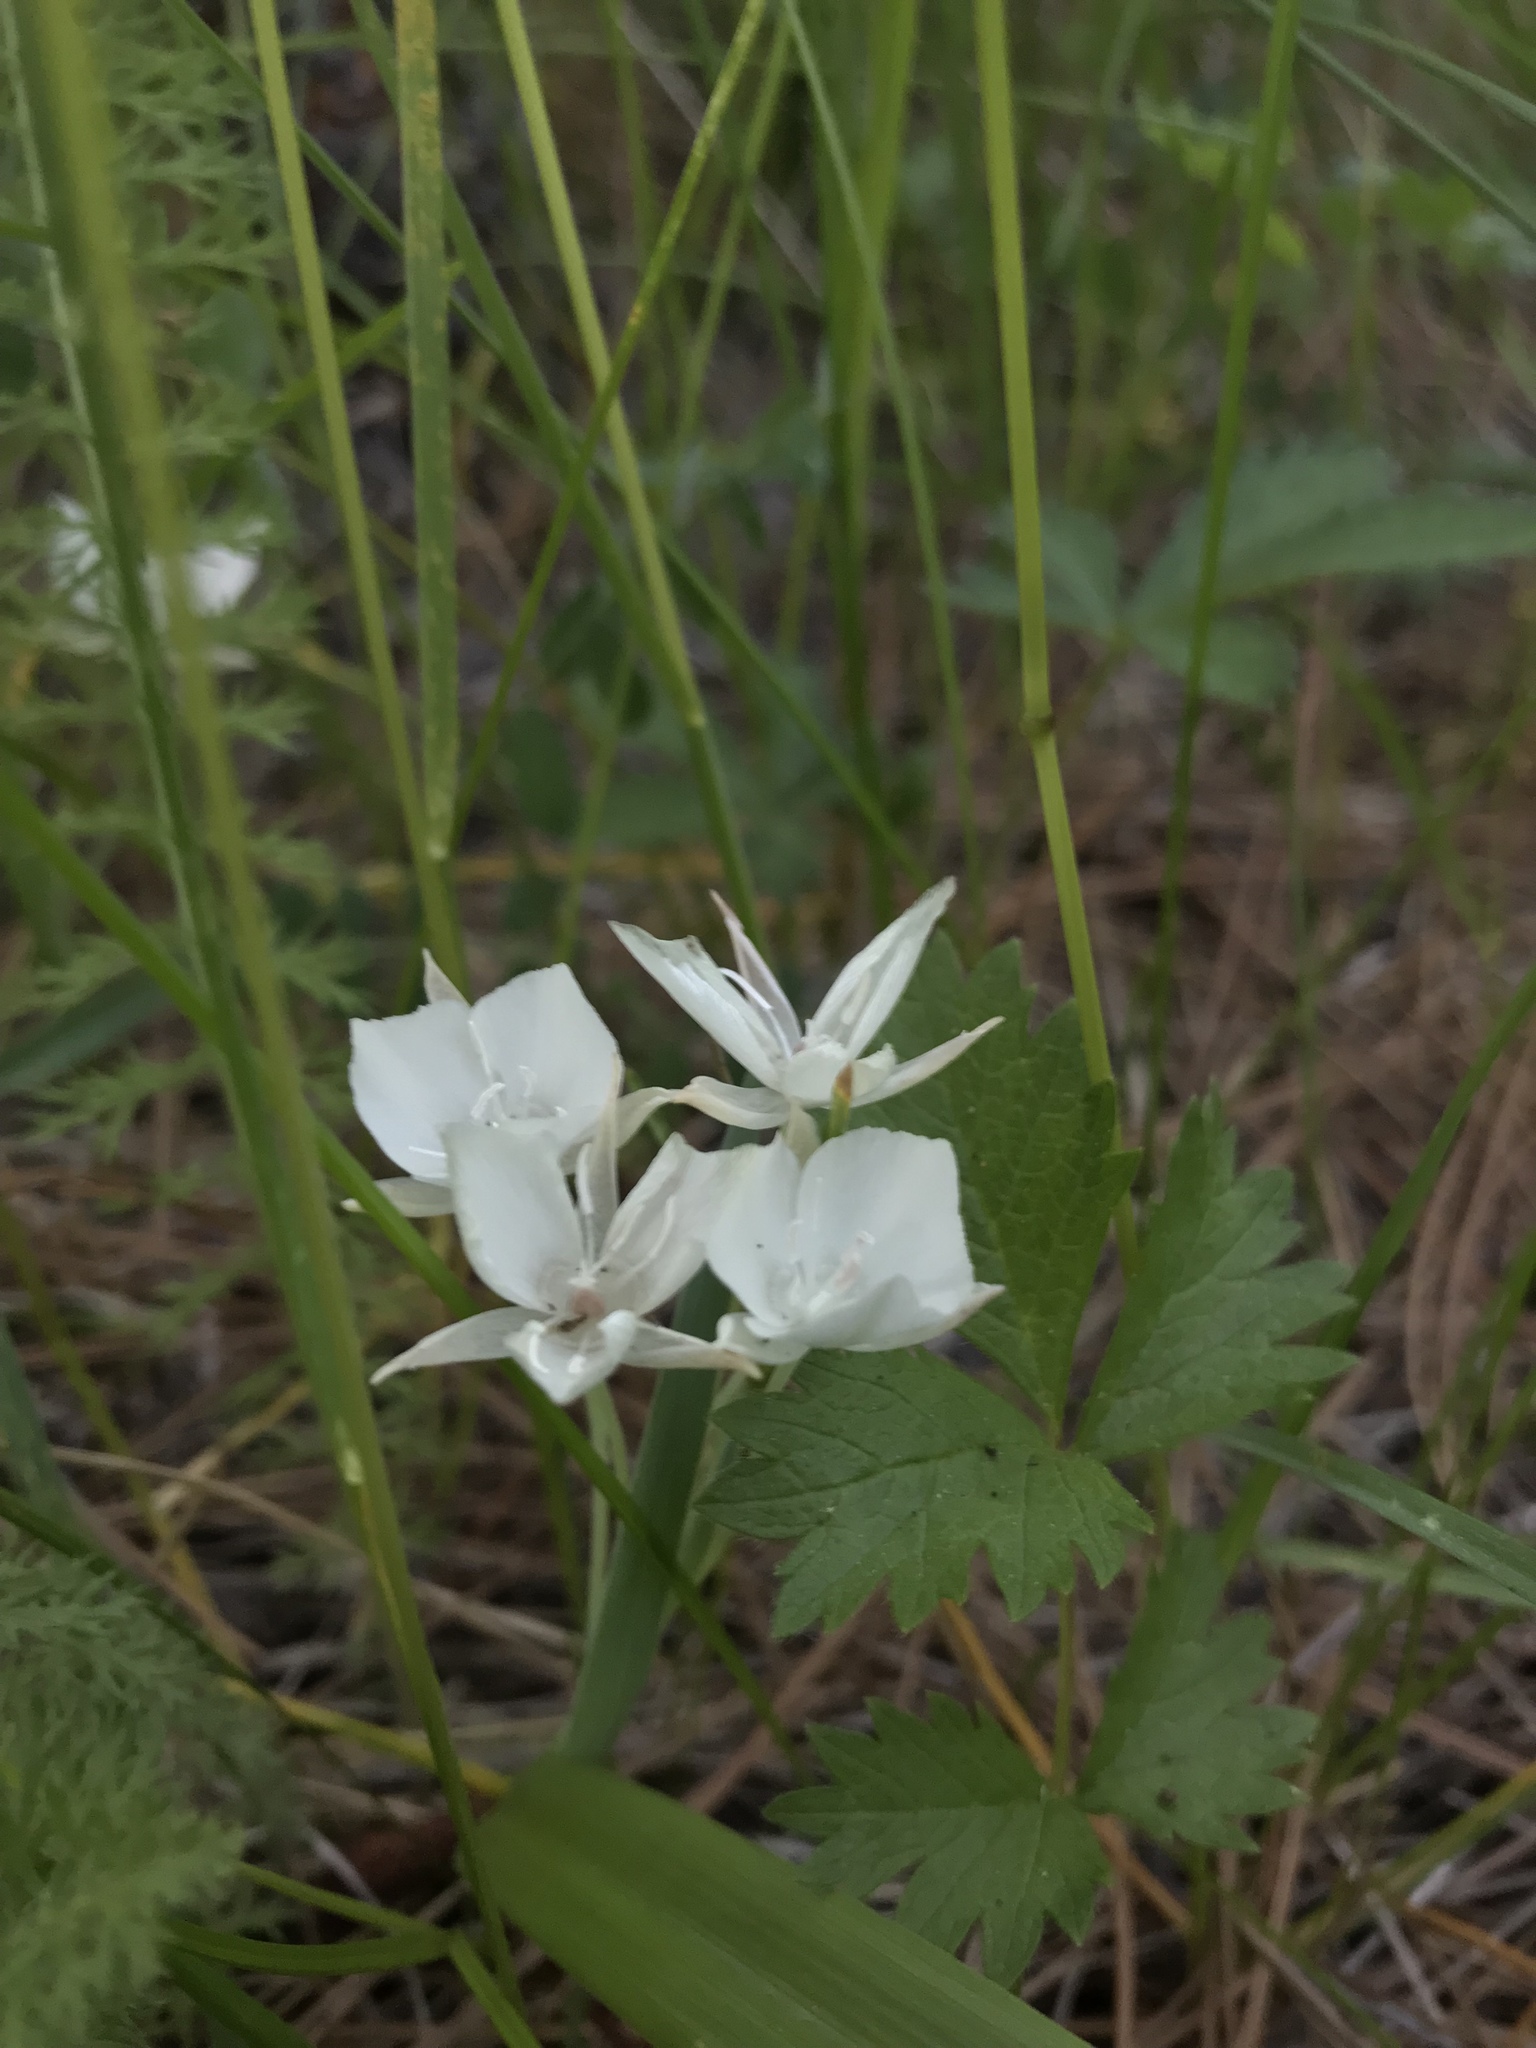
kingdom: Plantae
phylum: Tracheophyta
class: Liliopsida
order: Liliales
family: Liliaceae
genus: Calochortus
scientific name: Calochortus minimus
